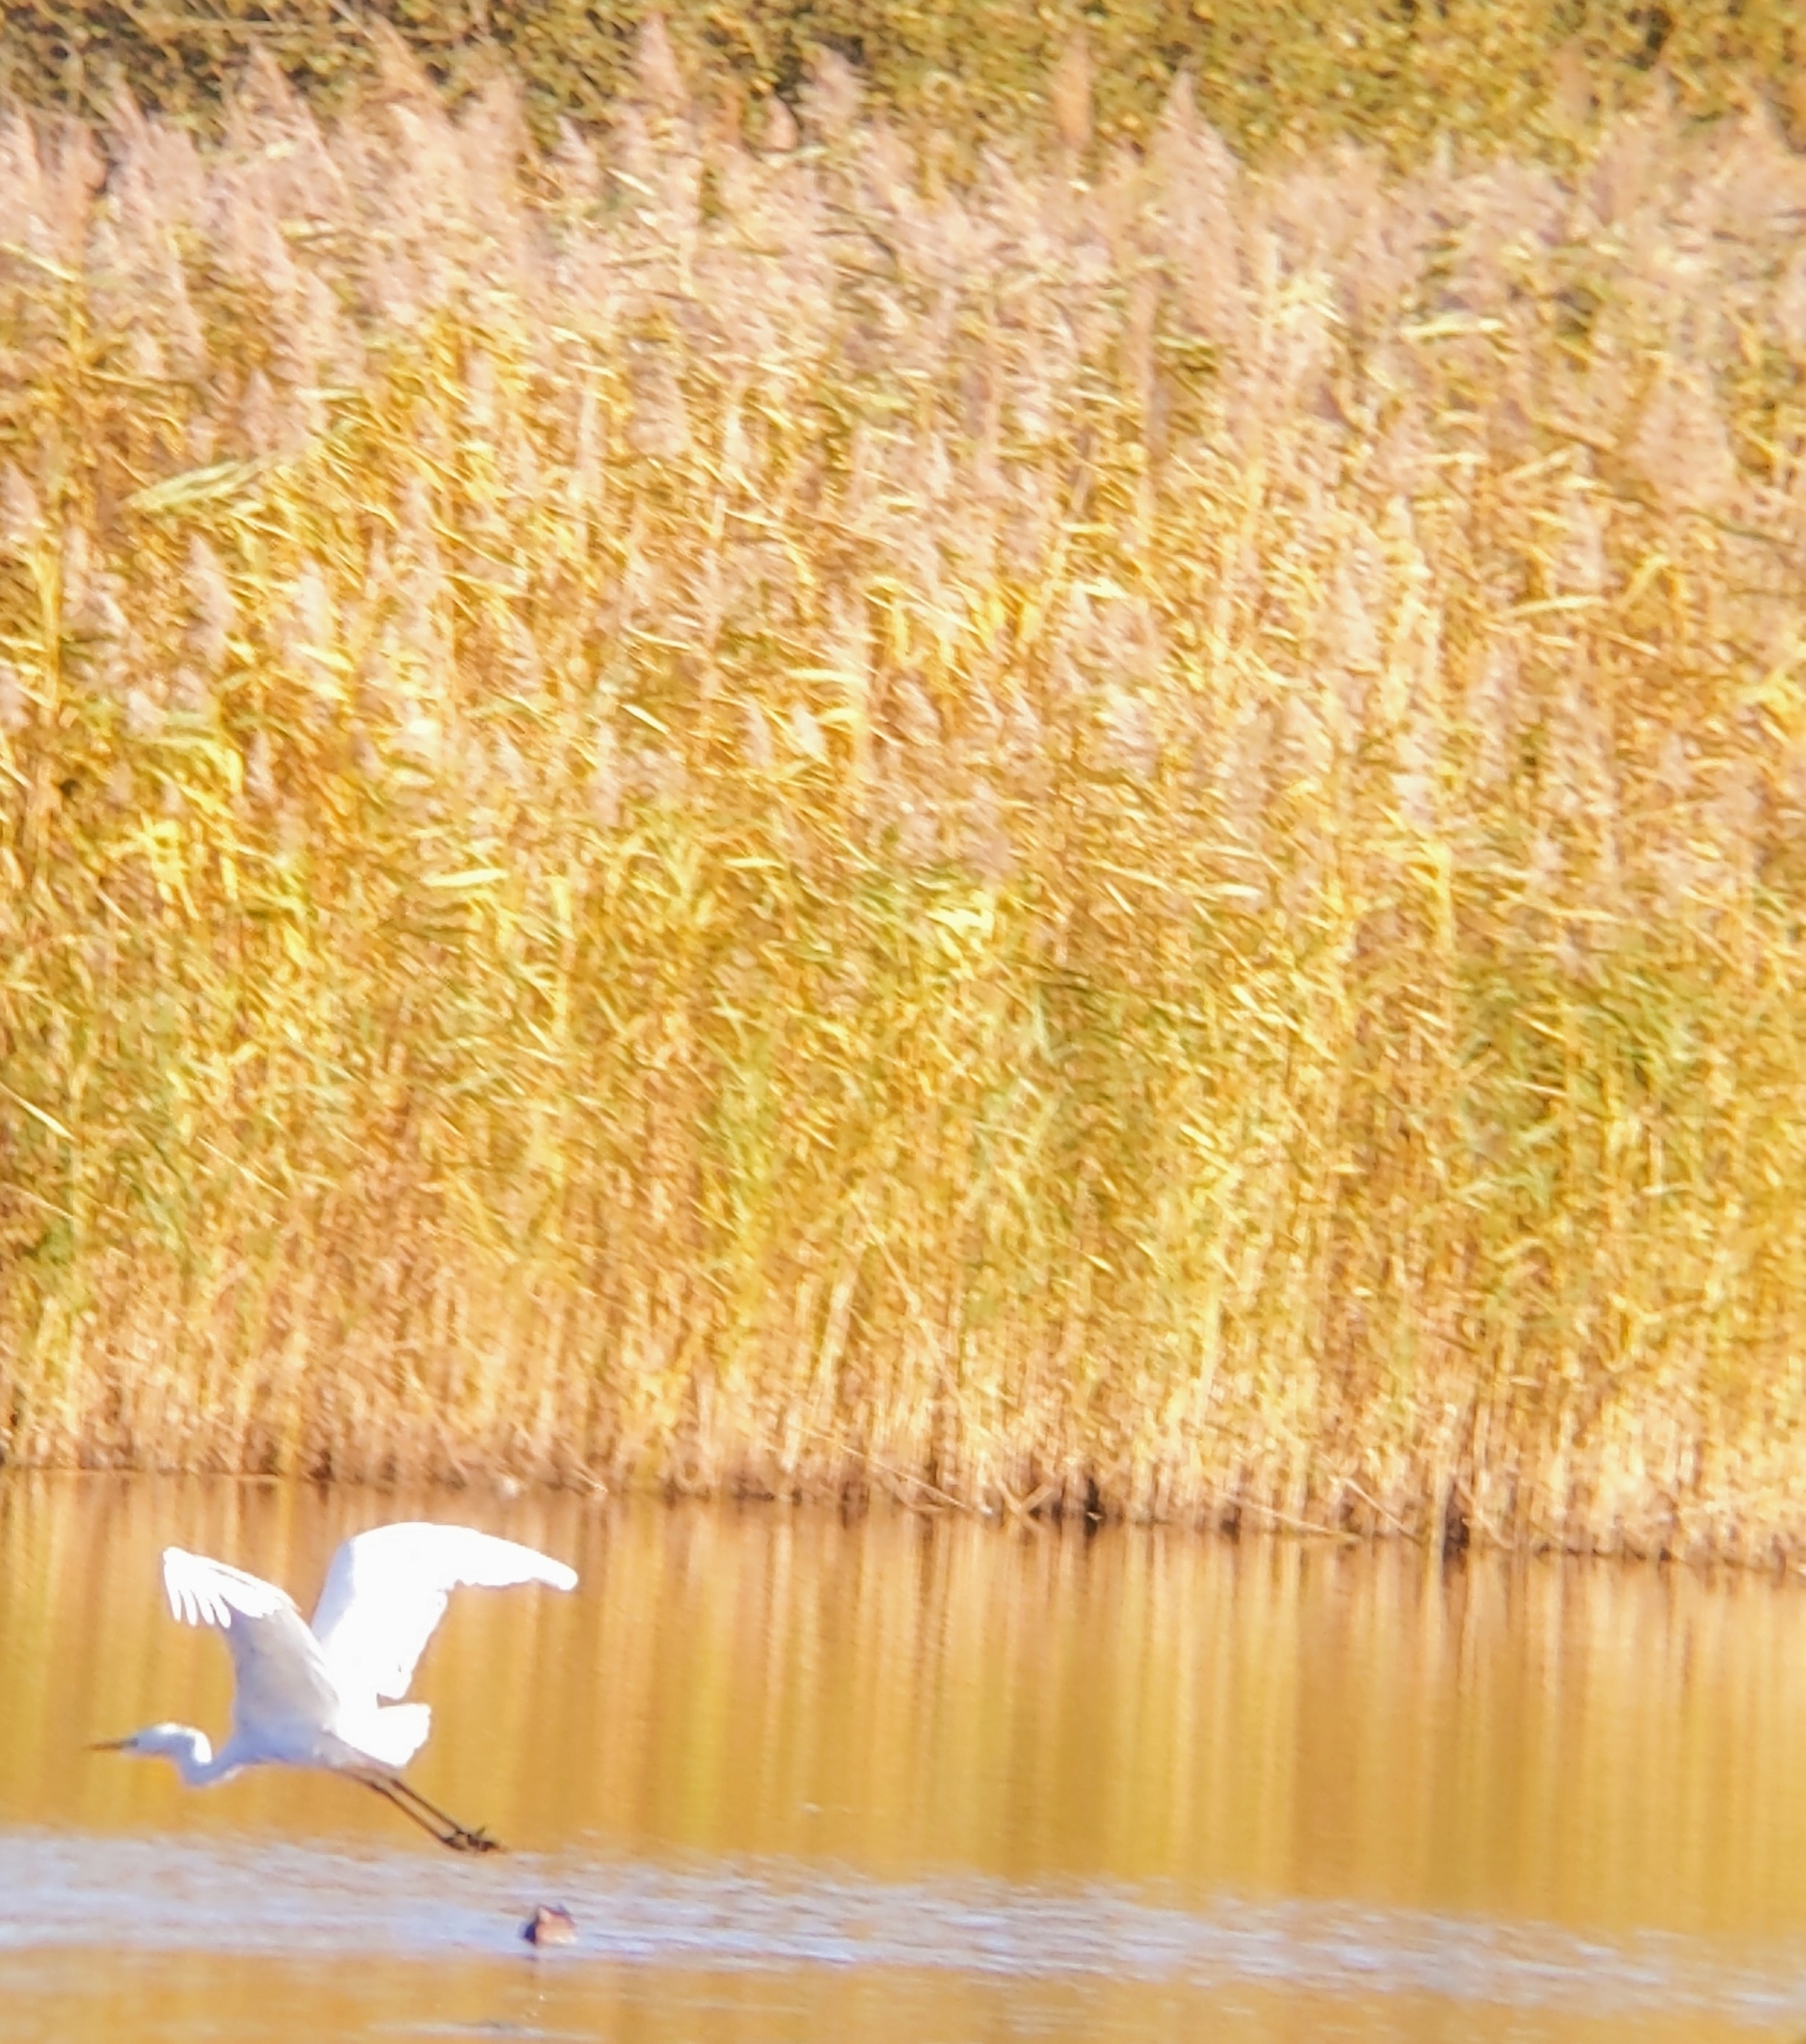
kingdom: Animalia
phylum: Chordata
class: Aves
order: Pelecaniformes
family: Ardeidae
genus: Ardea
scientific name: Ardea alba
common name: Great egret
